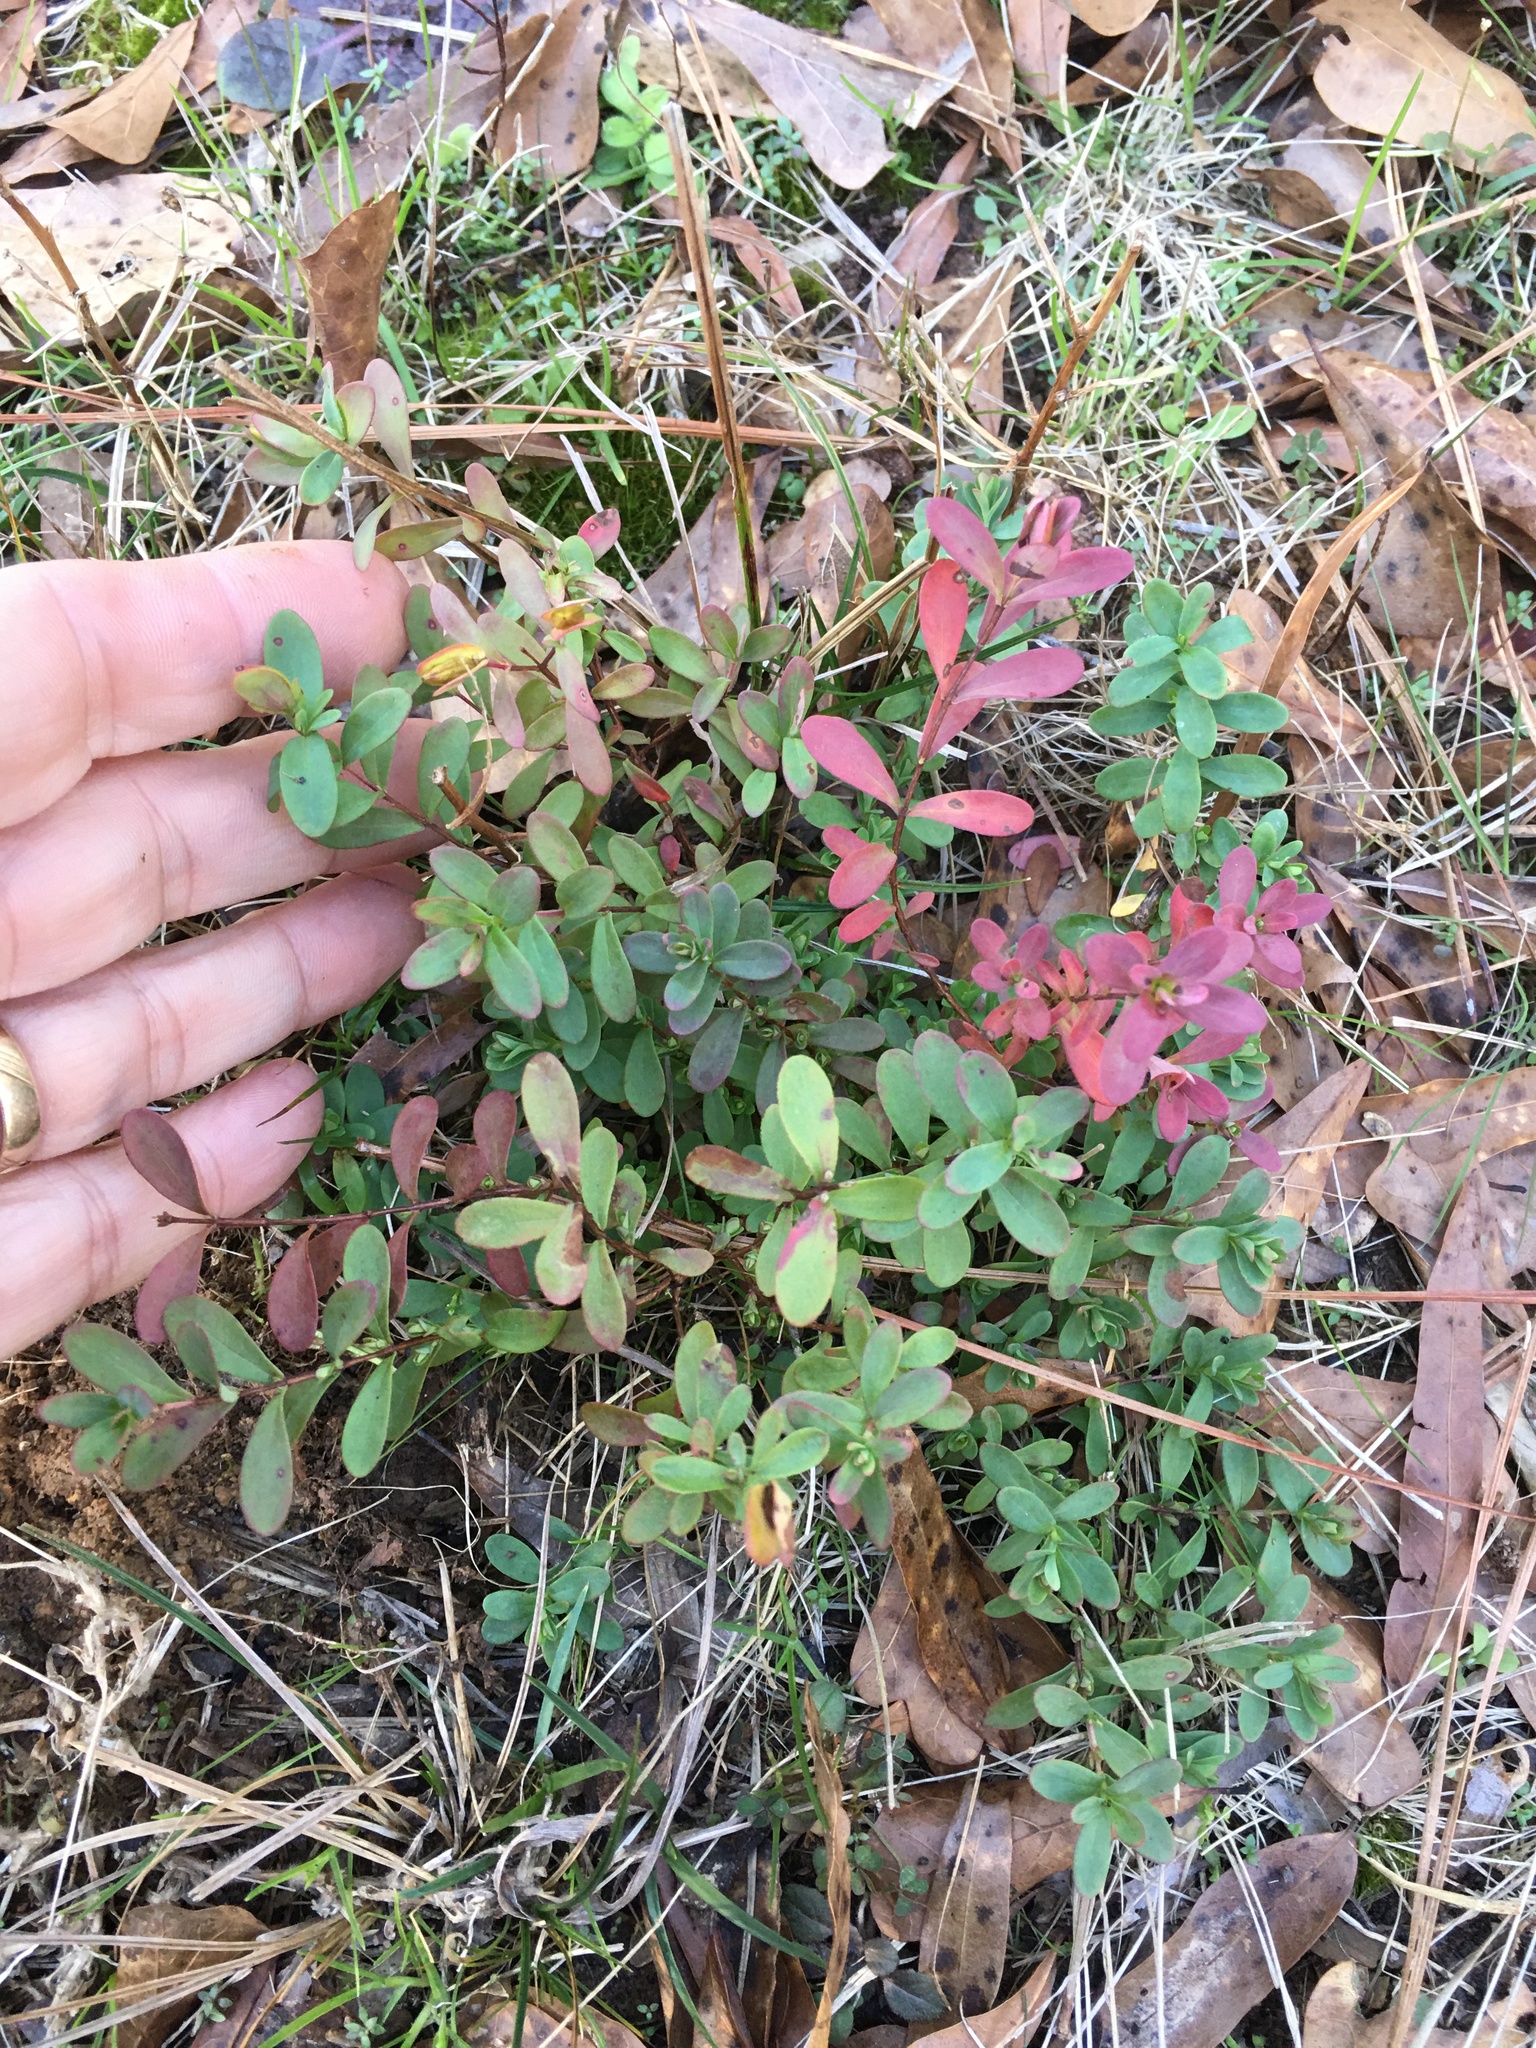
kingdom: Plantae
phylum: Tracheophyta
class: Magnoliopsida
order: Malpighiales
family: Hypericaceae
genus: Hypericum
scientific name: Hypericum hypericoides
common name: St. andrew's cross
